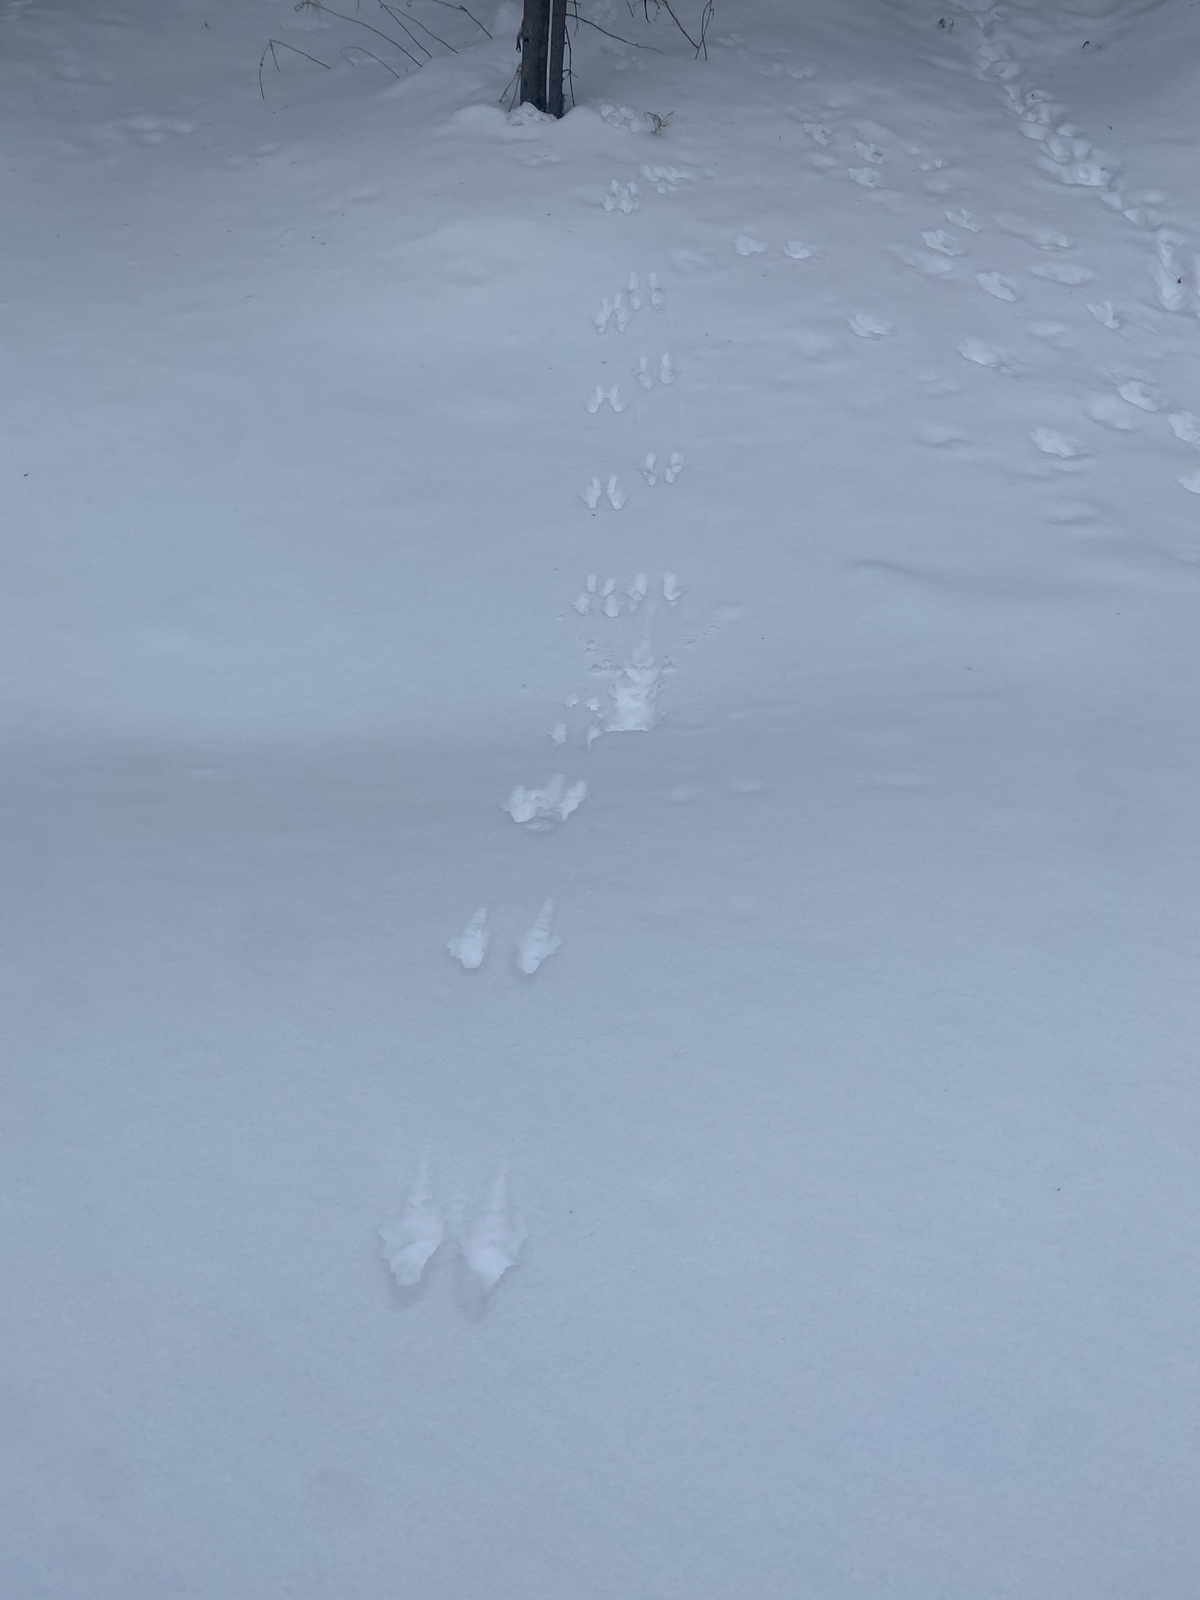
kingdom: Animalia
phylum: Chordata
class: Mammalia
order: Lagomorpha
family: Leporidae
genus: Lepus
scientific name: Lepus timidus
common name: Mountain hare
